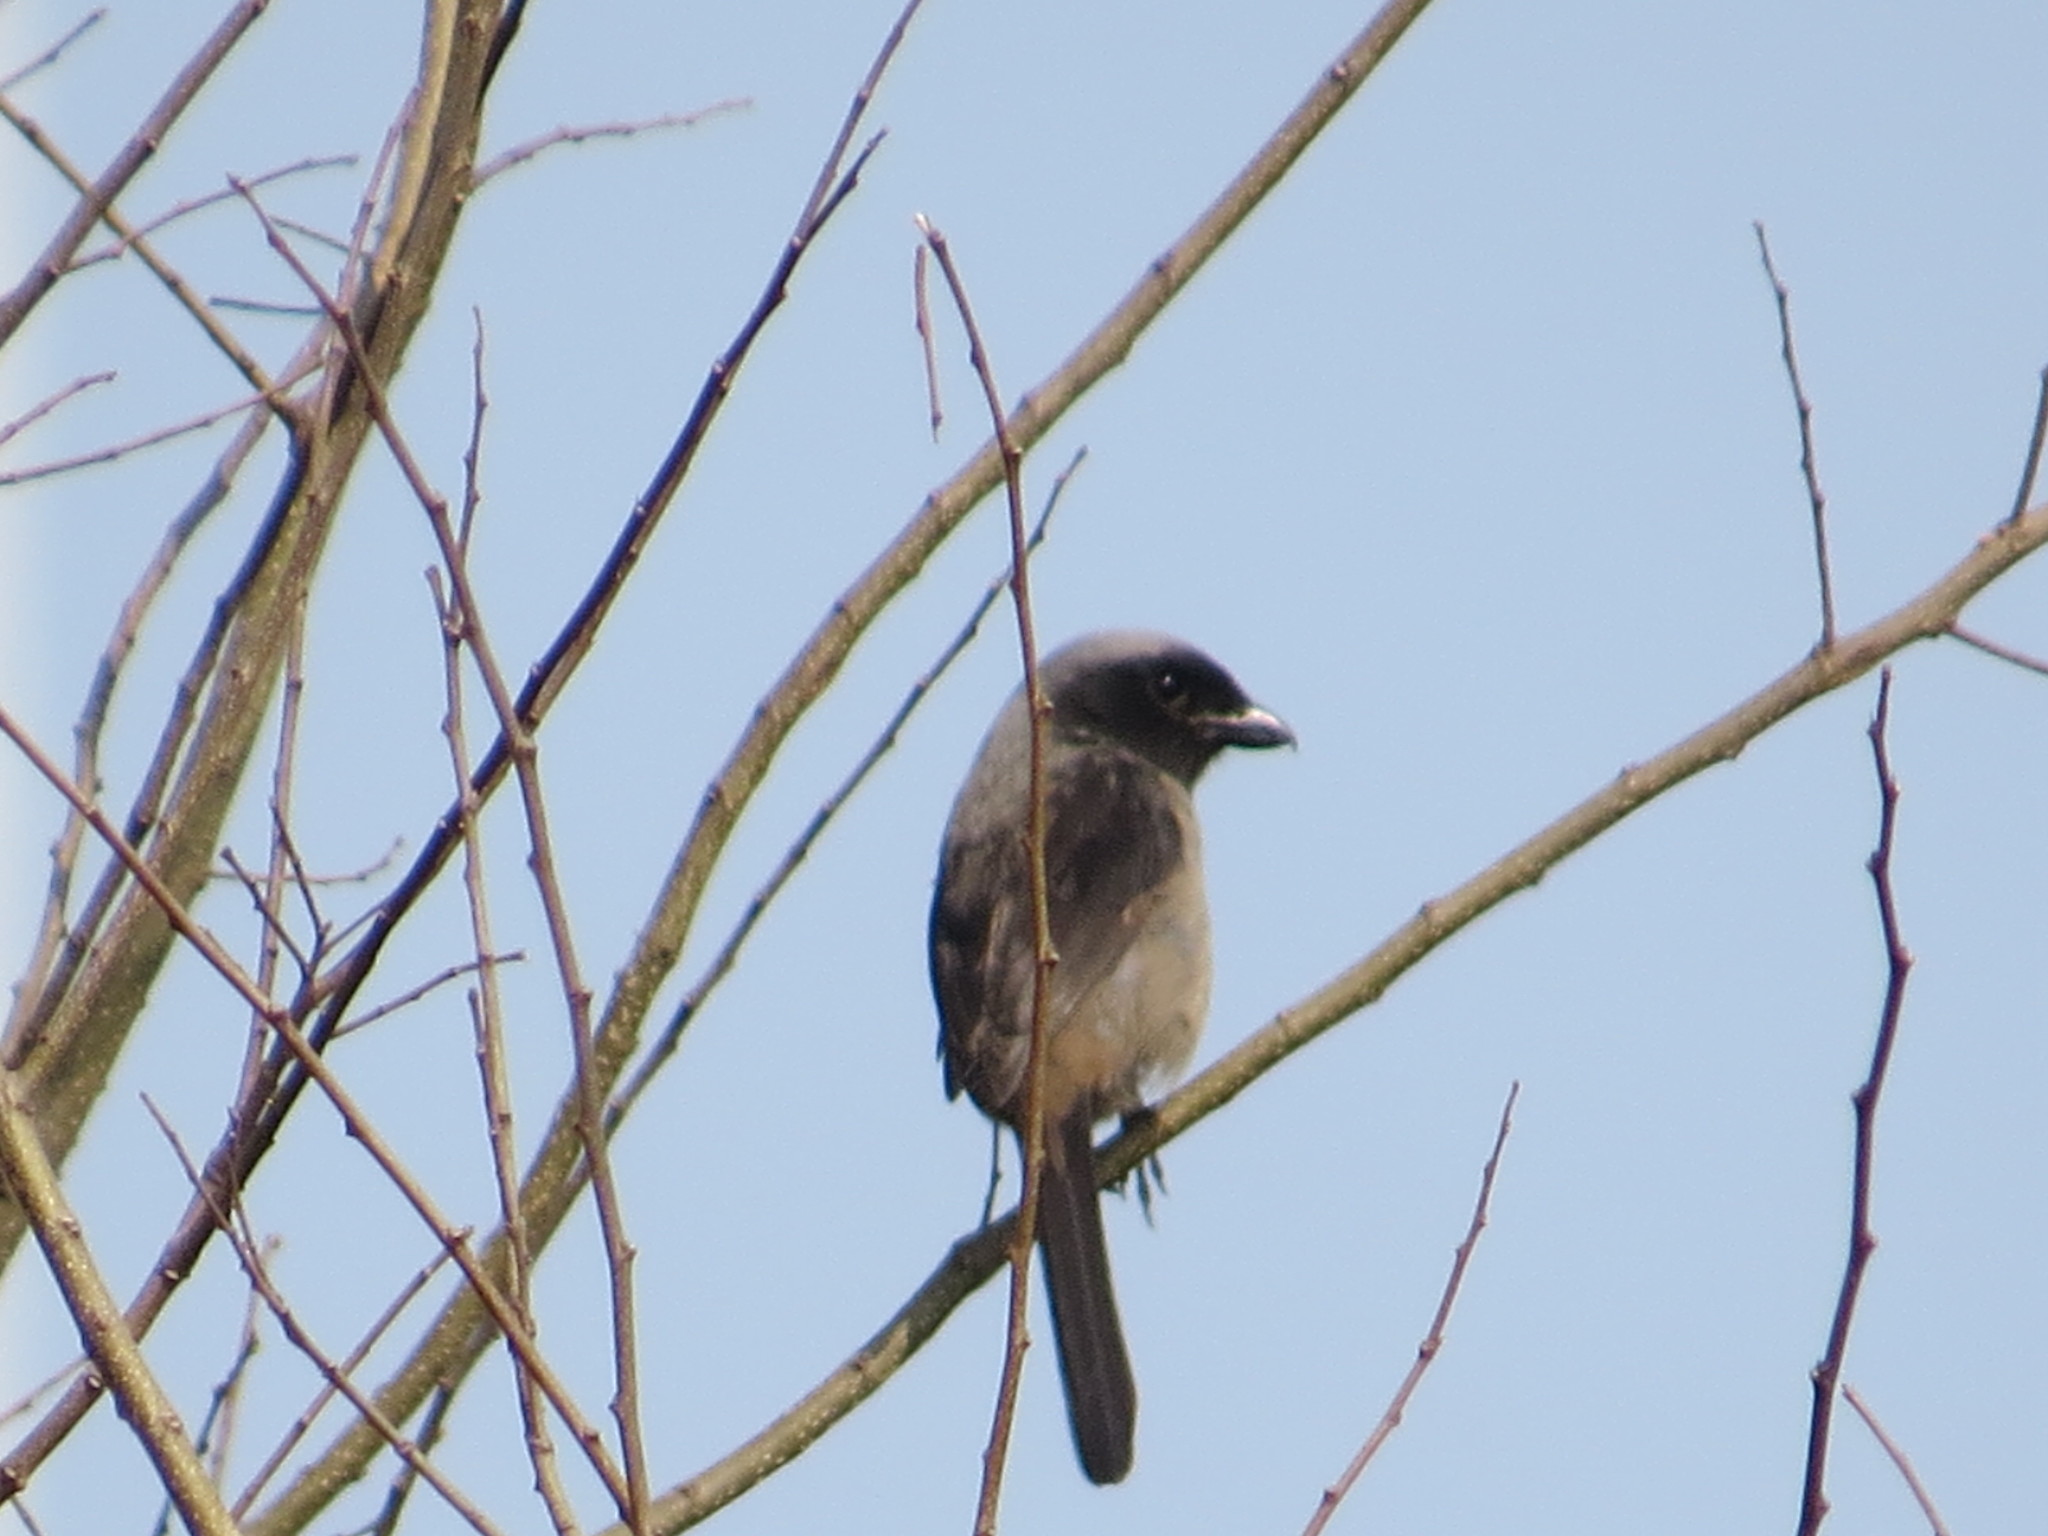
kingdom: Animalia
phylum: Chordata
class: Aves
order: Passeriformes
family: Laniidae
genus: Lanius
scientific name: Lanius schach
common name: Long-tailed shrike
